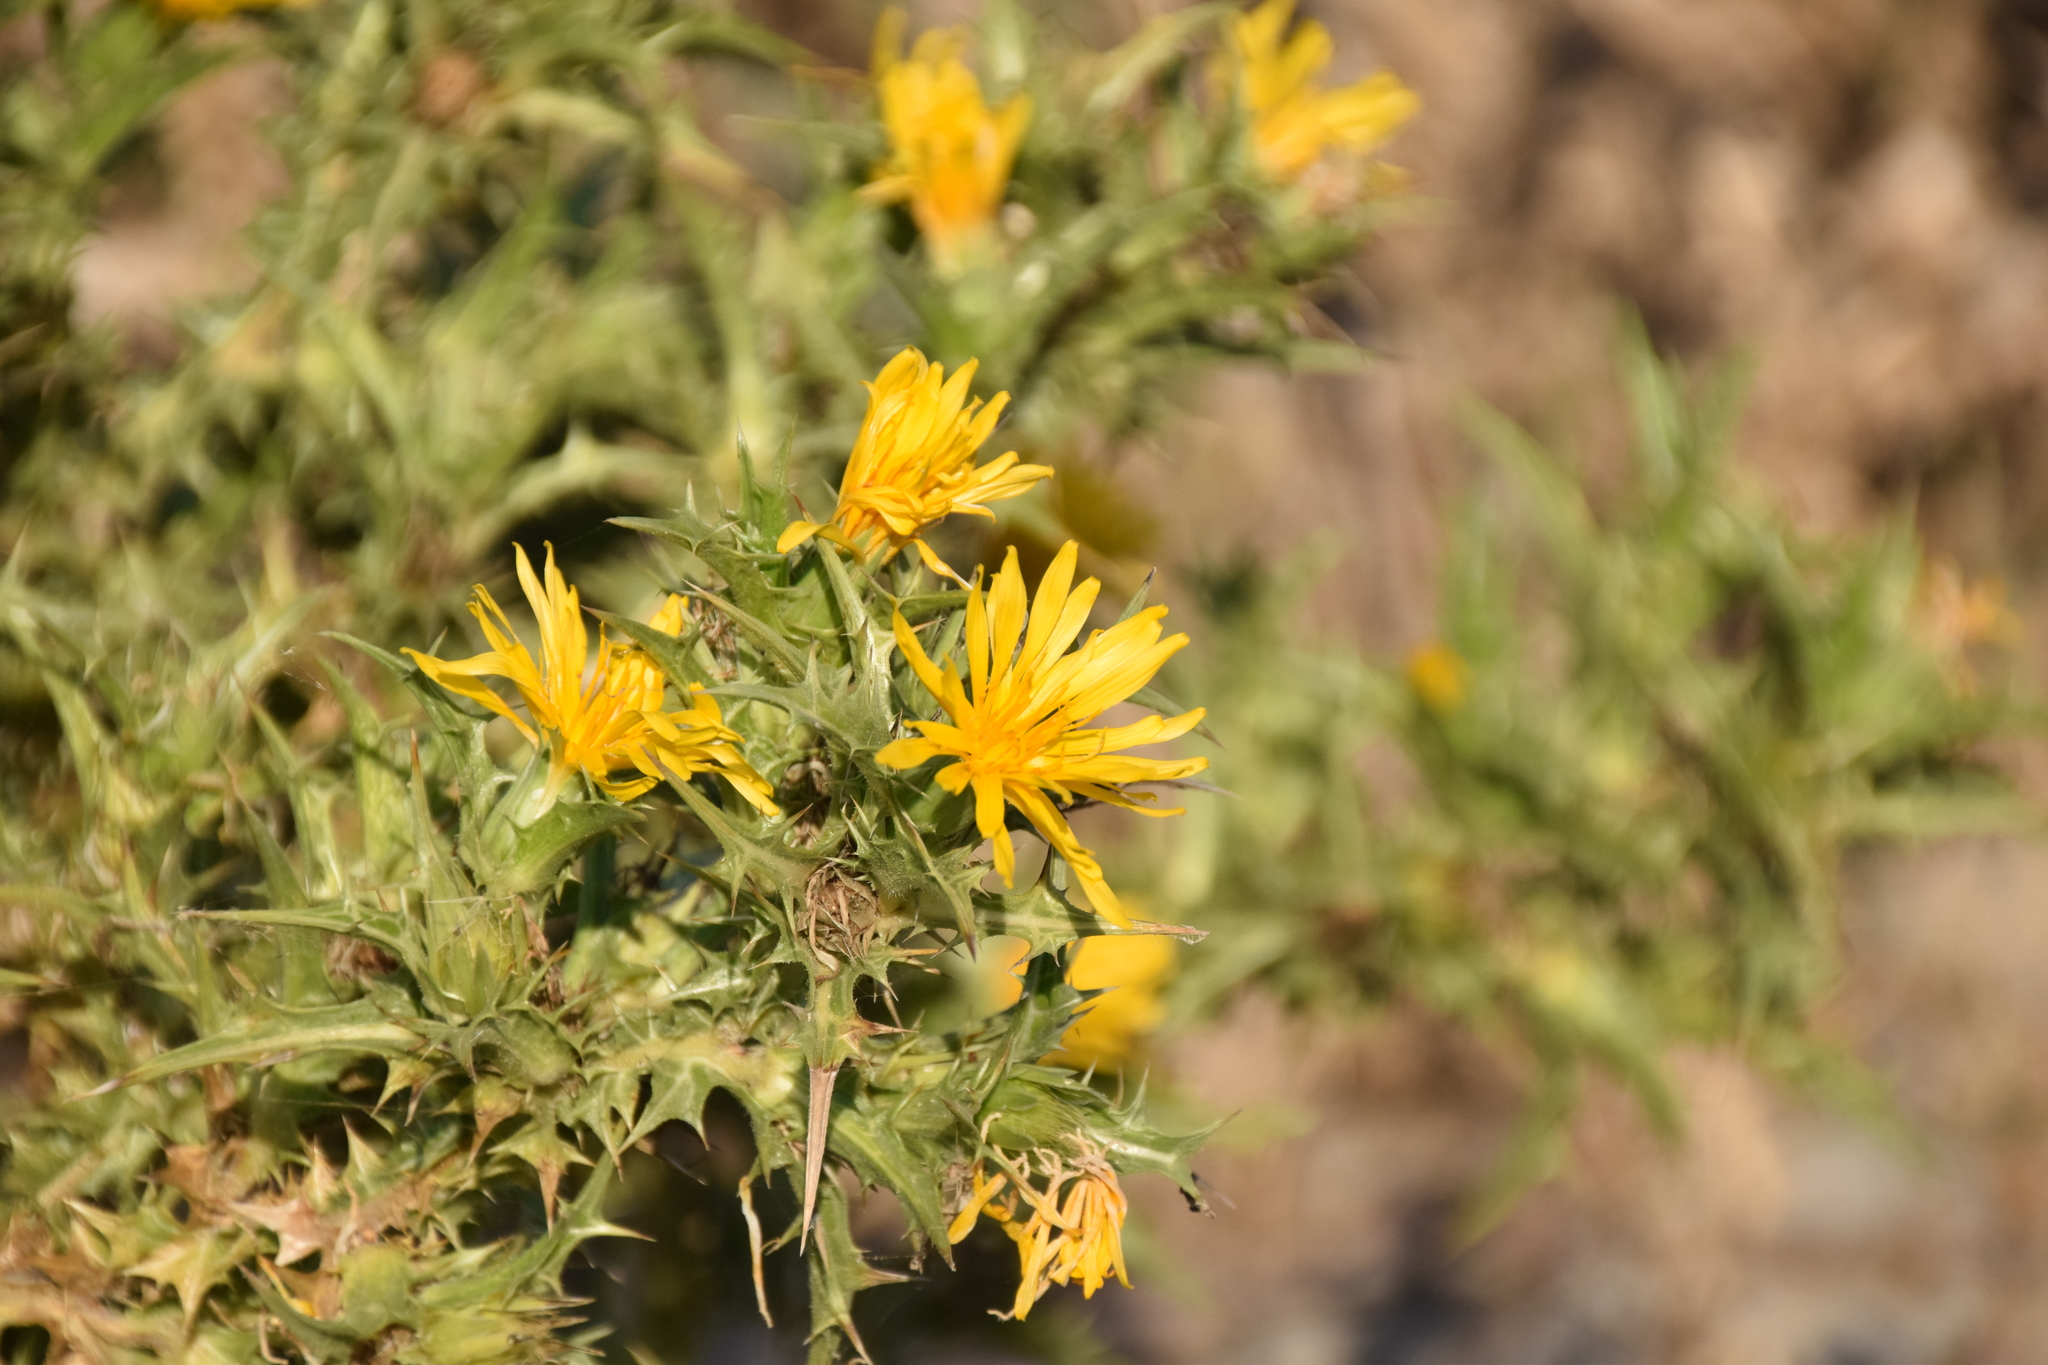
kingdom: Plantae
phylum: Tracheophyta
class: Magnoliopsida
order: Asterales
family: Asteraceae
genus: Scolymus
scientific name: Scolymus hispanicus
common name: Golden thistle
